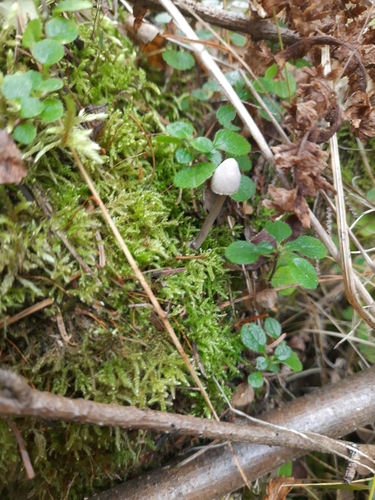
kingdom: Fungi
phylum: Basidiomycota
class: Agaricomycetes
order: Agaricales
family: Mycenaceae
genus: Mycena
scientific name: Mycena
